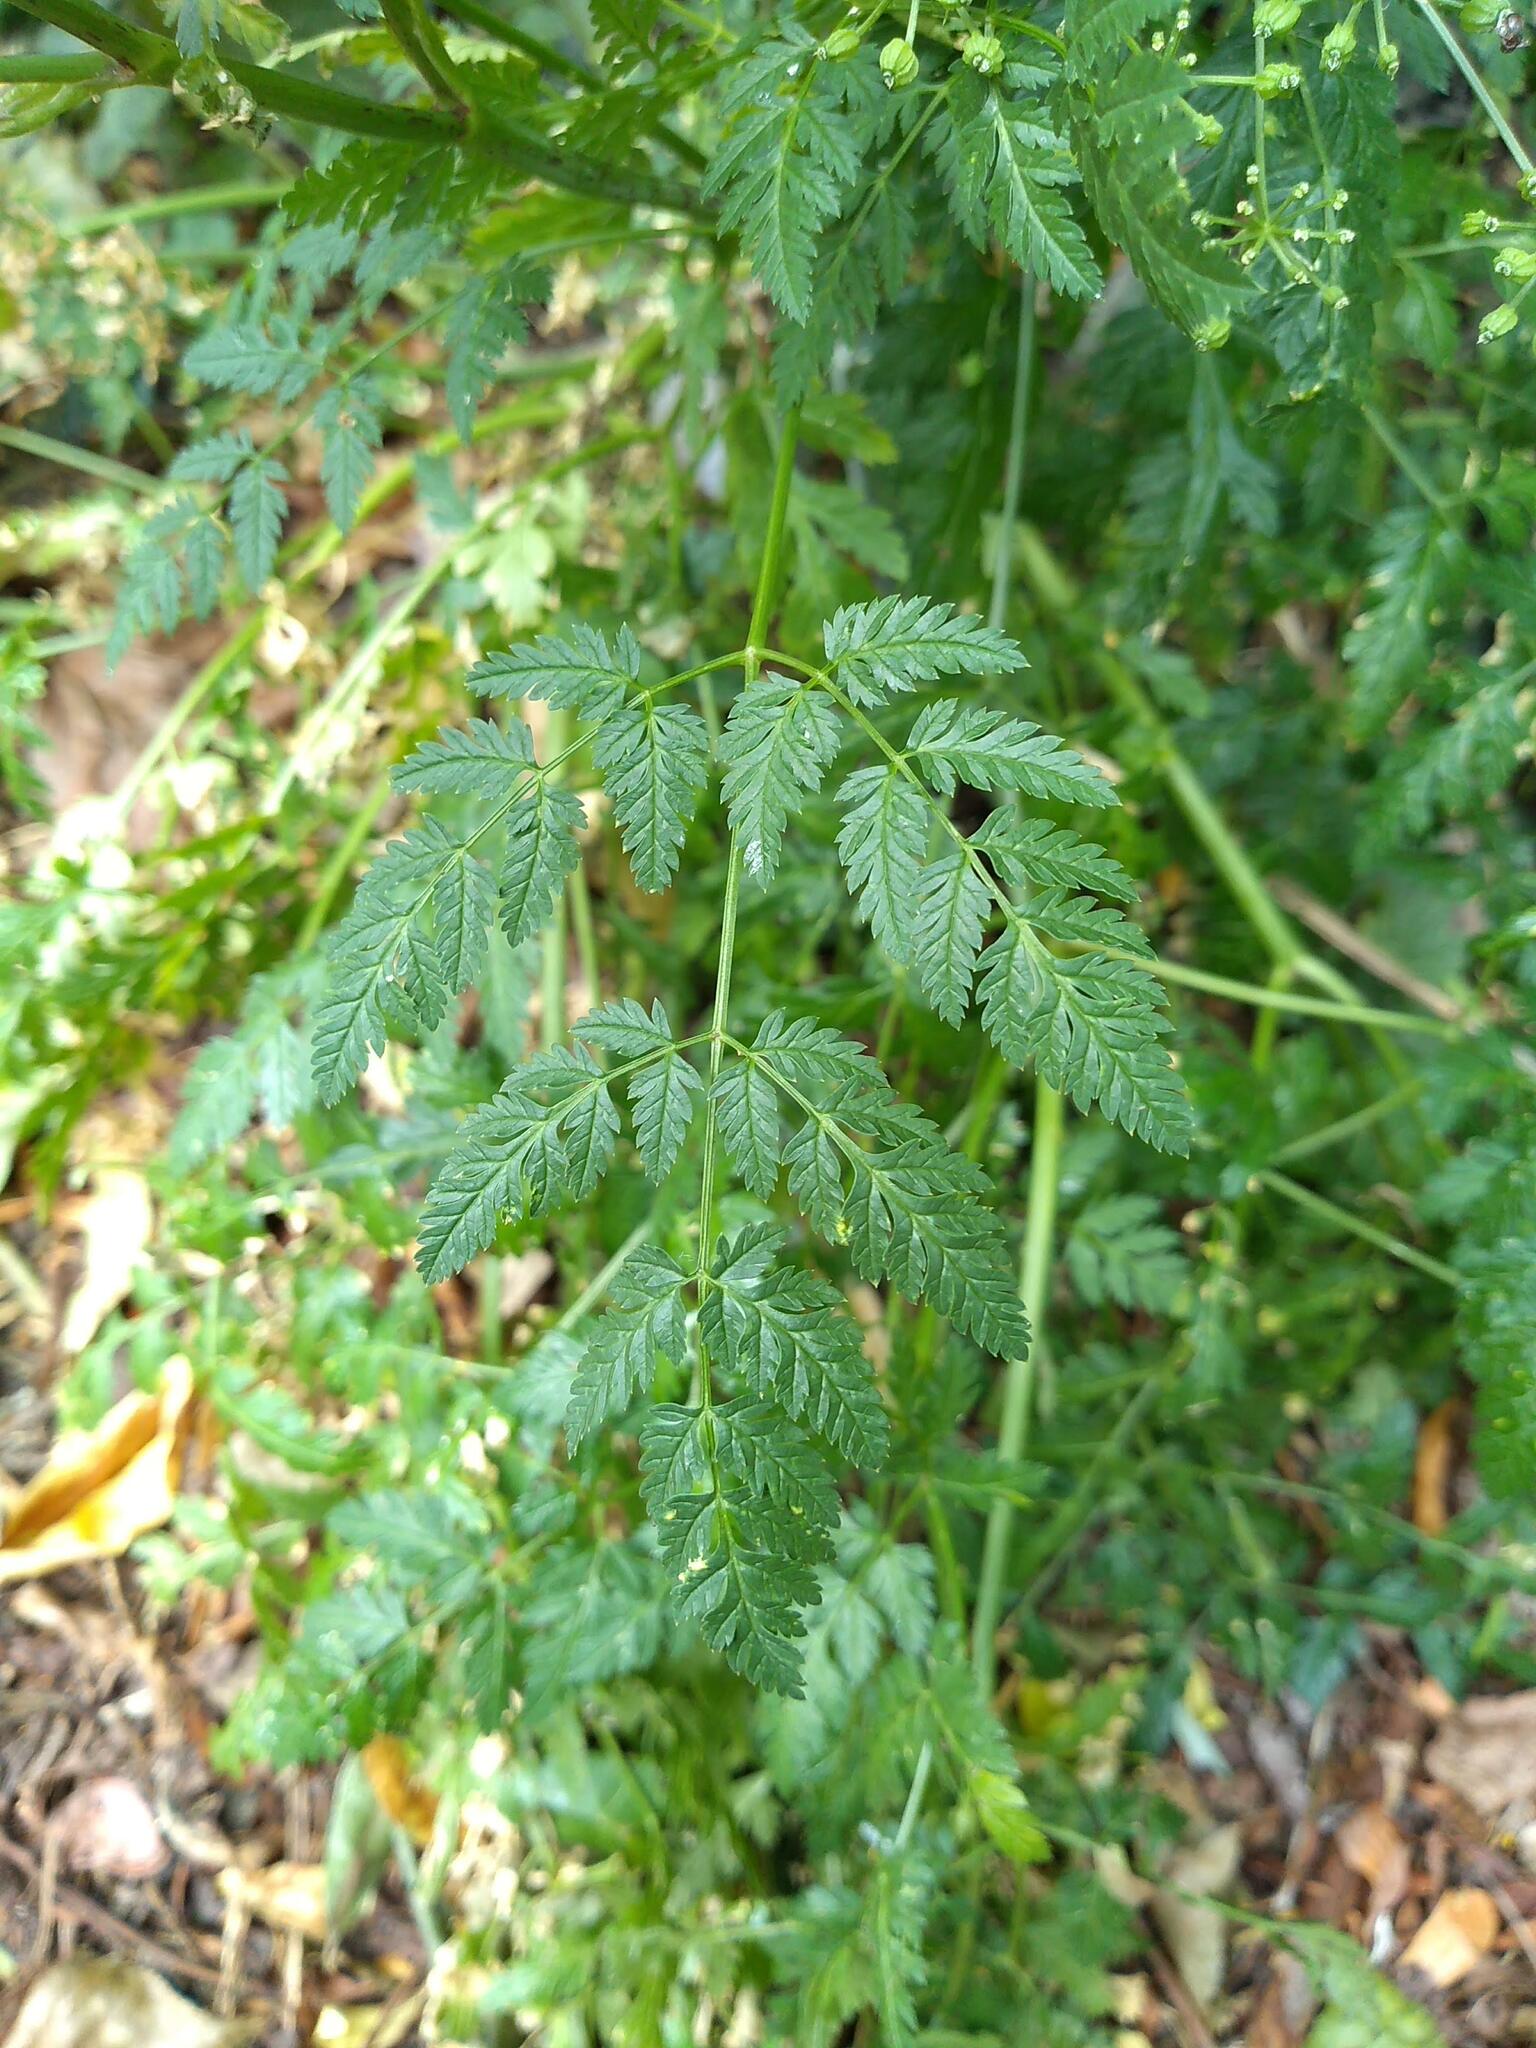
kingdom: Plantae
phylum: Tracheophyta
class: Magnoliopsida
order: Apiales
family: Apiaceae
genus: Conium
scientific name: Conium maculatum
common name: Hemlock
